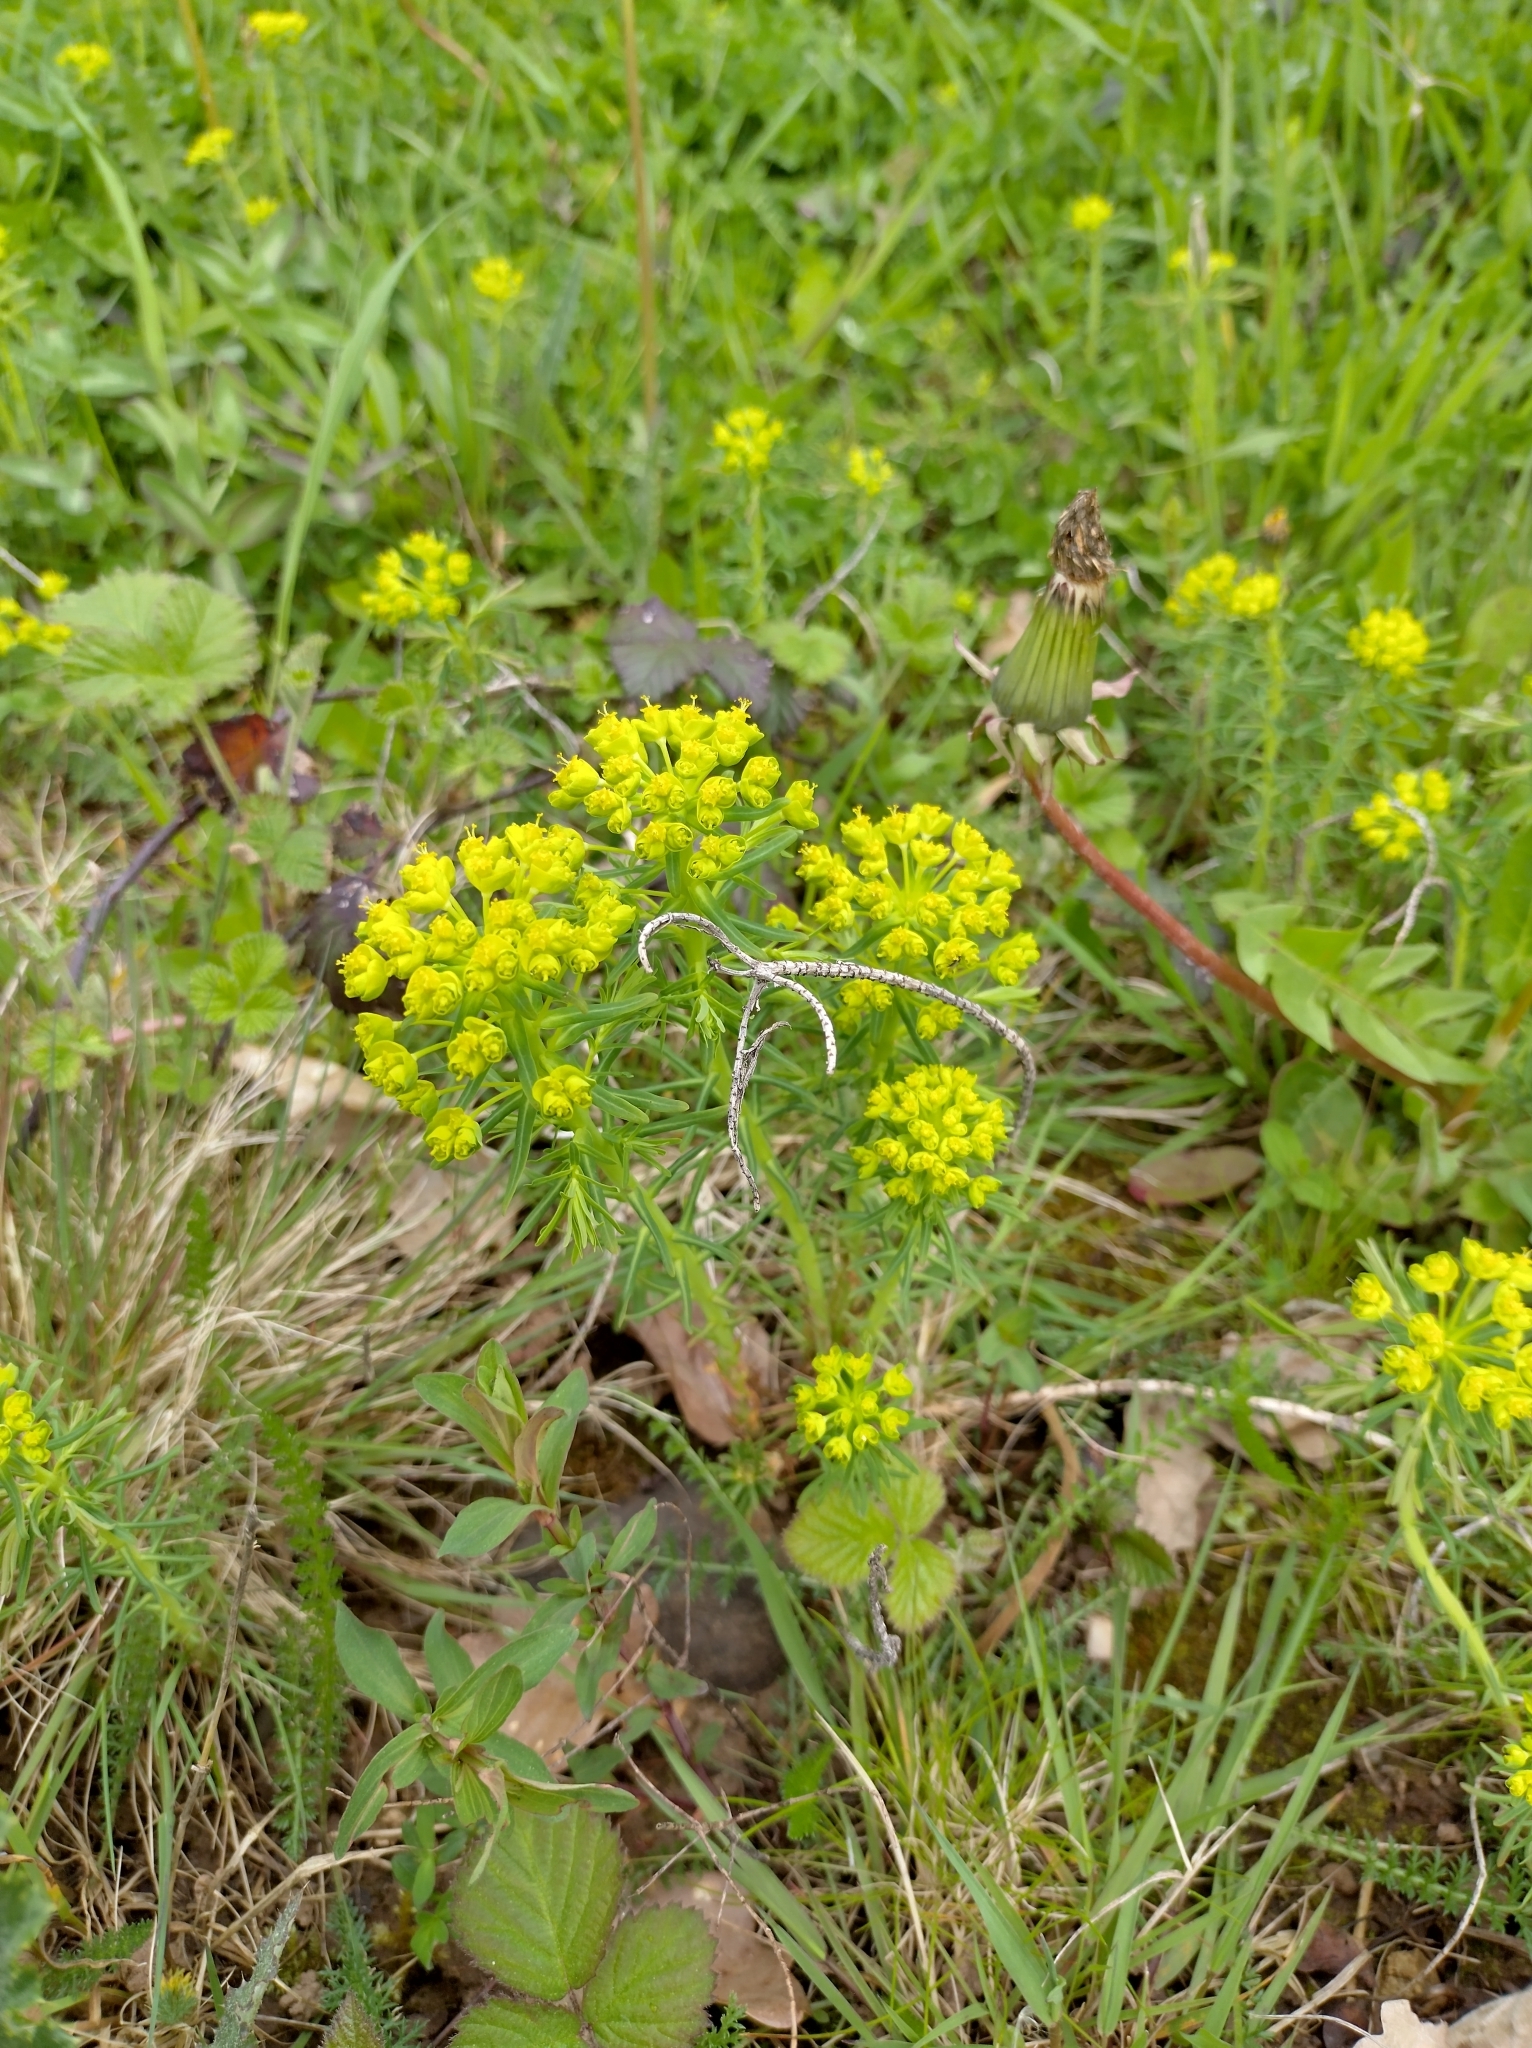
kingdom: Plantae
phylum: Tracheophyta
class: Magnoliopsida
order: Malpighiales
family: Euphorbiaceae
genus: Euphorbia
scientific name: Euphorbia cyparissias
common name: Cypress spurge
